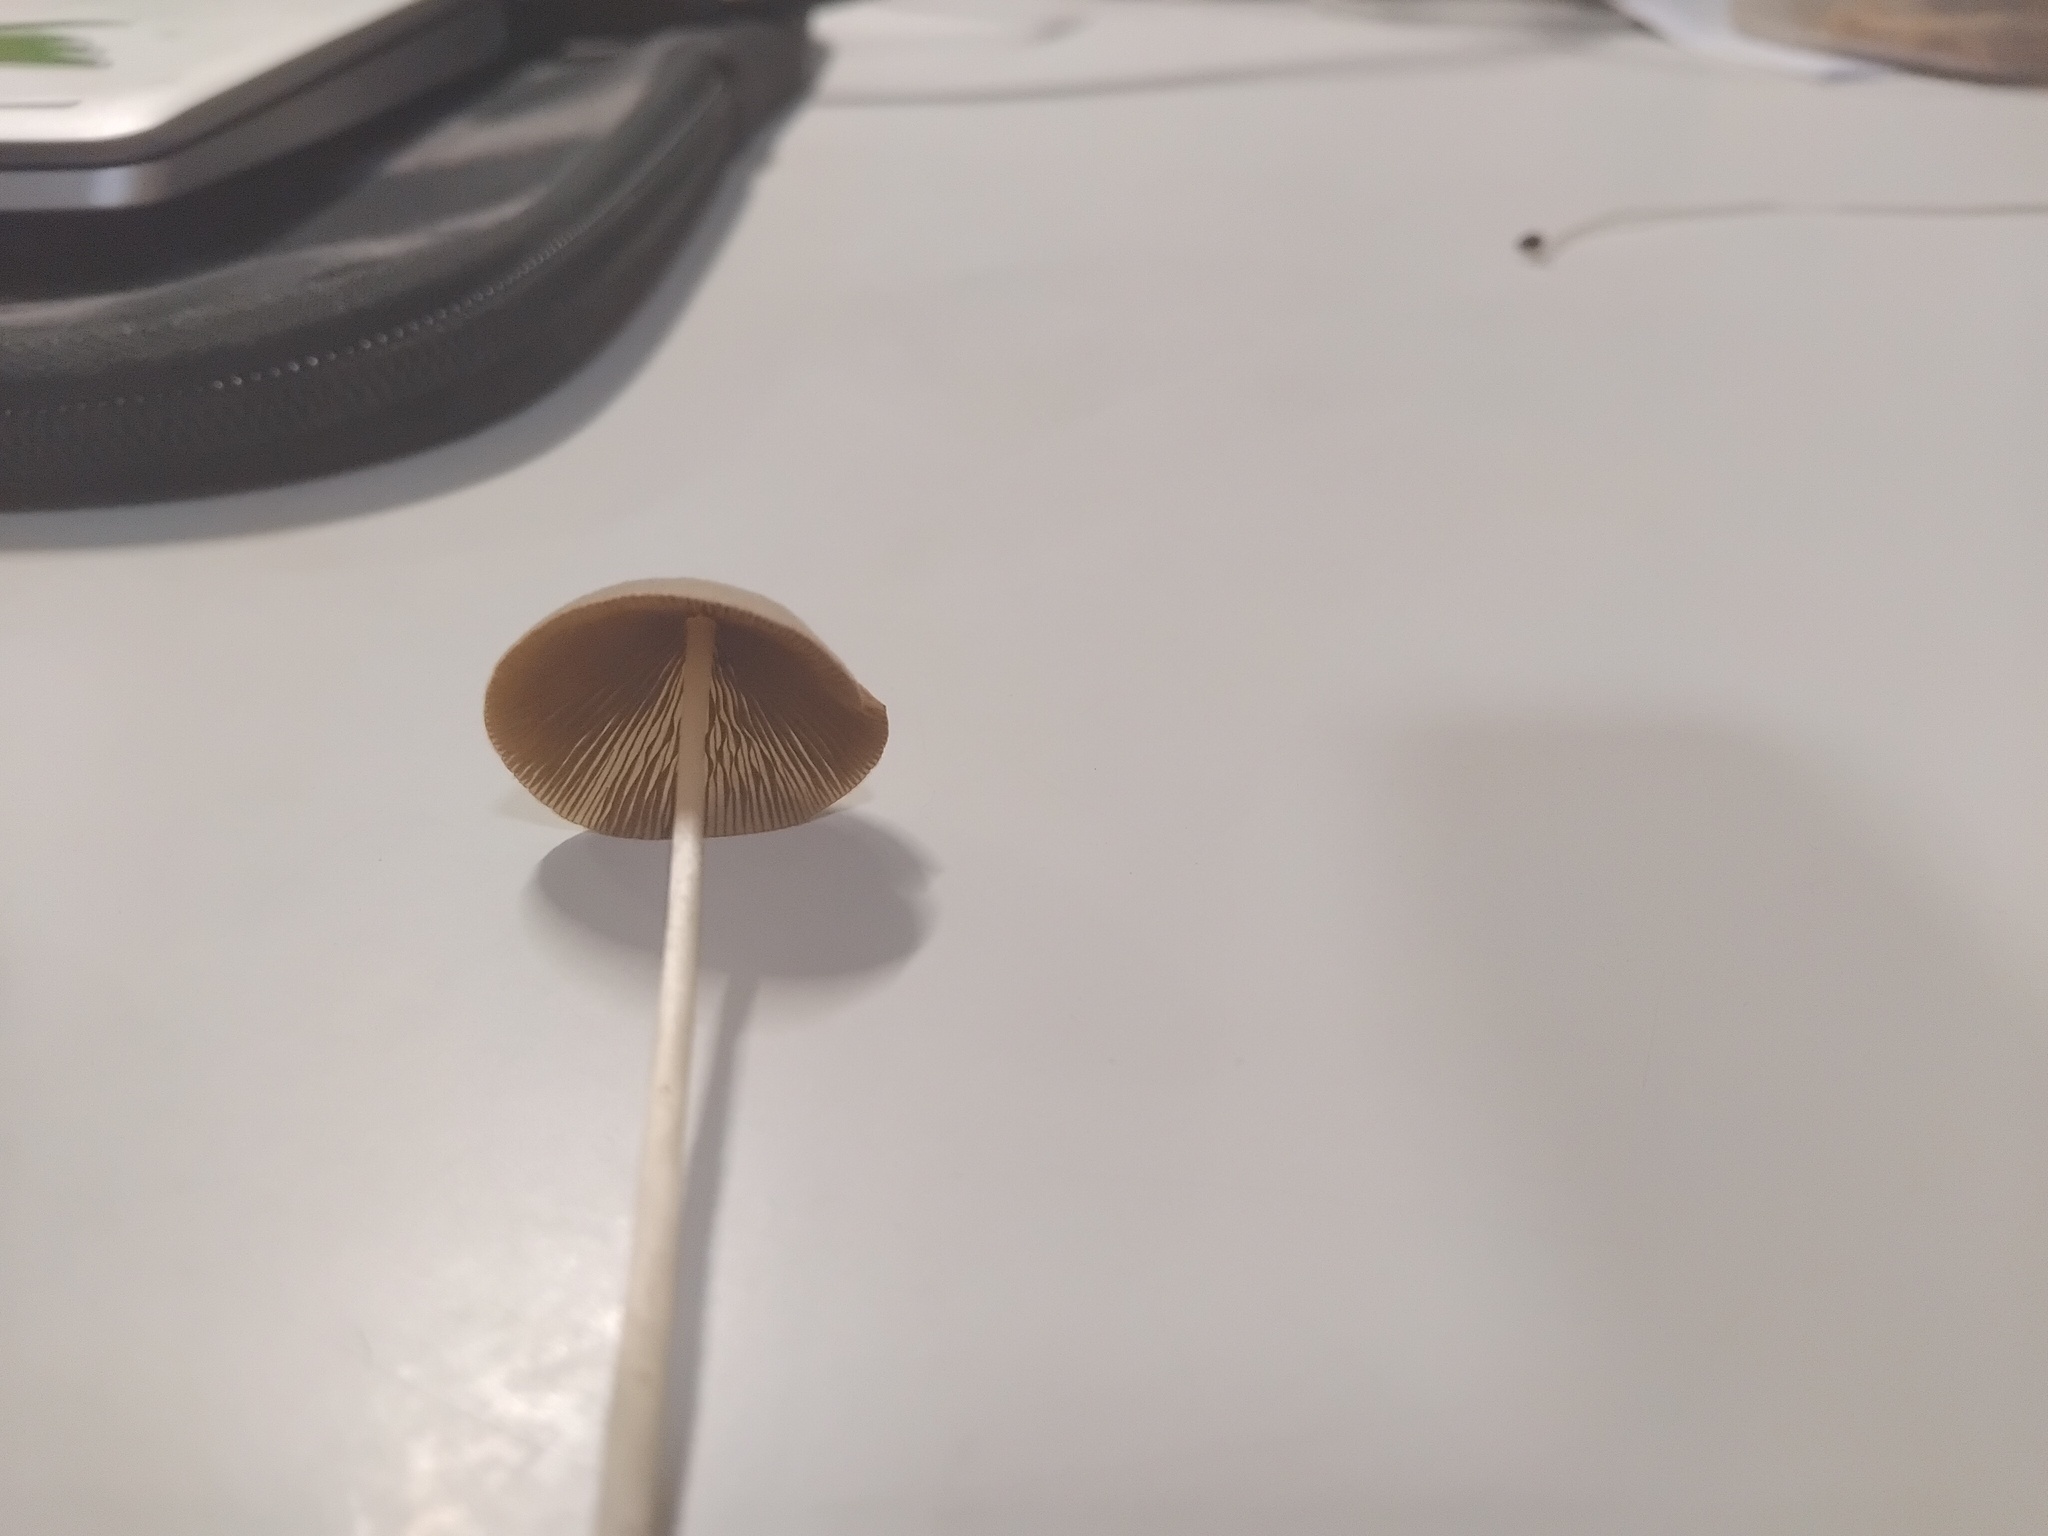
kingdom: Fungi
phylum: Basidiomycota
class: Agaricomycetes
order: Agaricales
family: Bolbitiaceae
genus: Conocybe
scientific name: Conocybe apala
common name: Milky conecap
